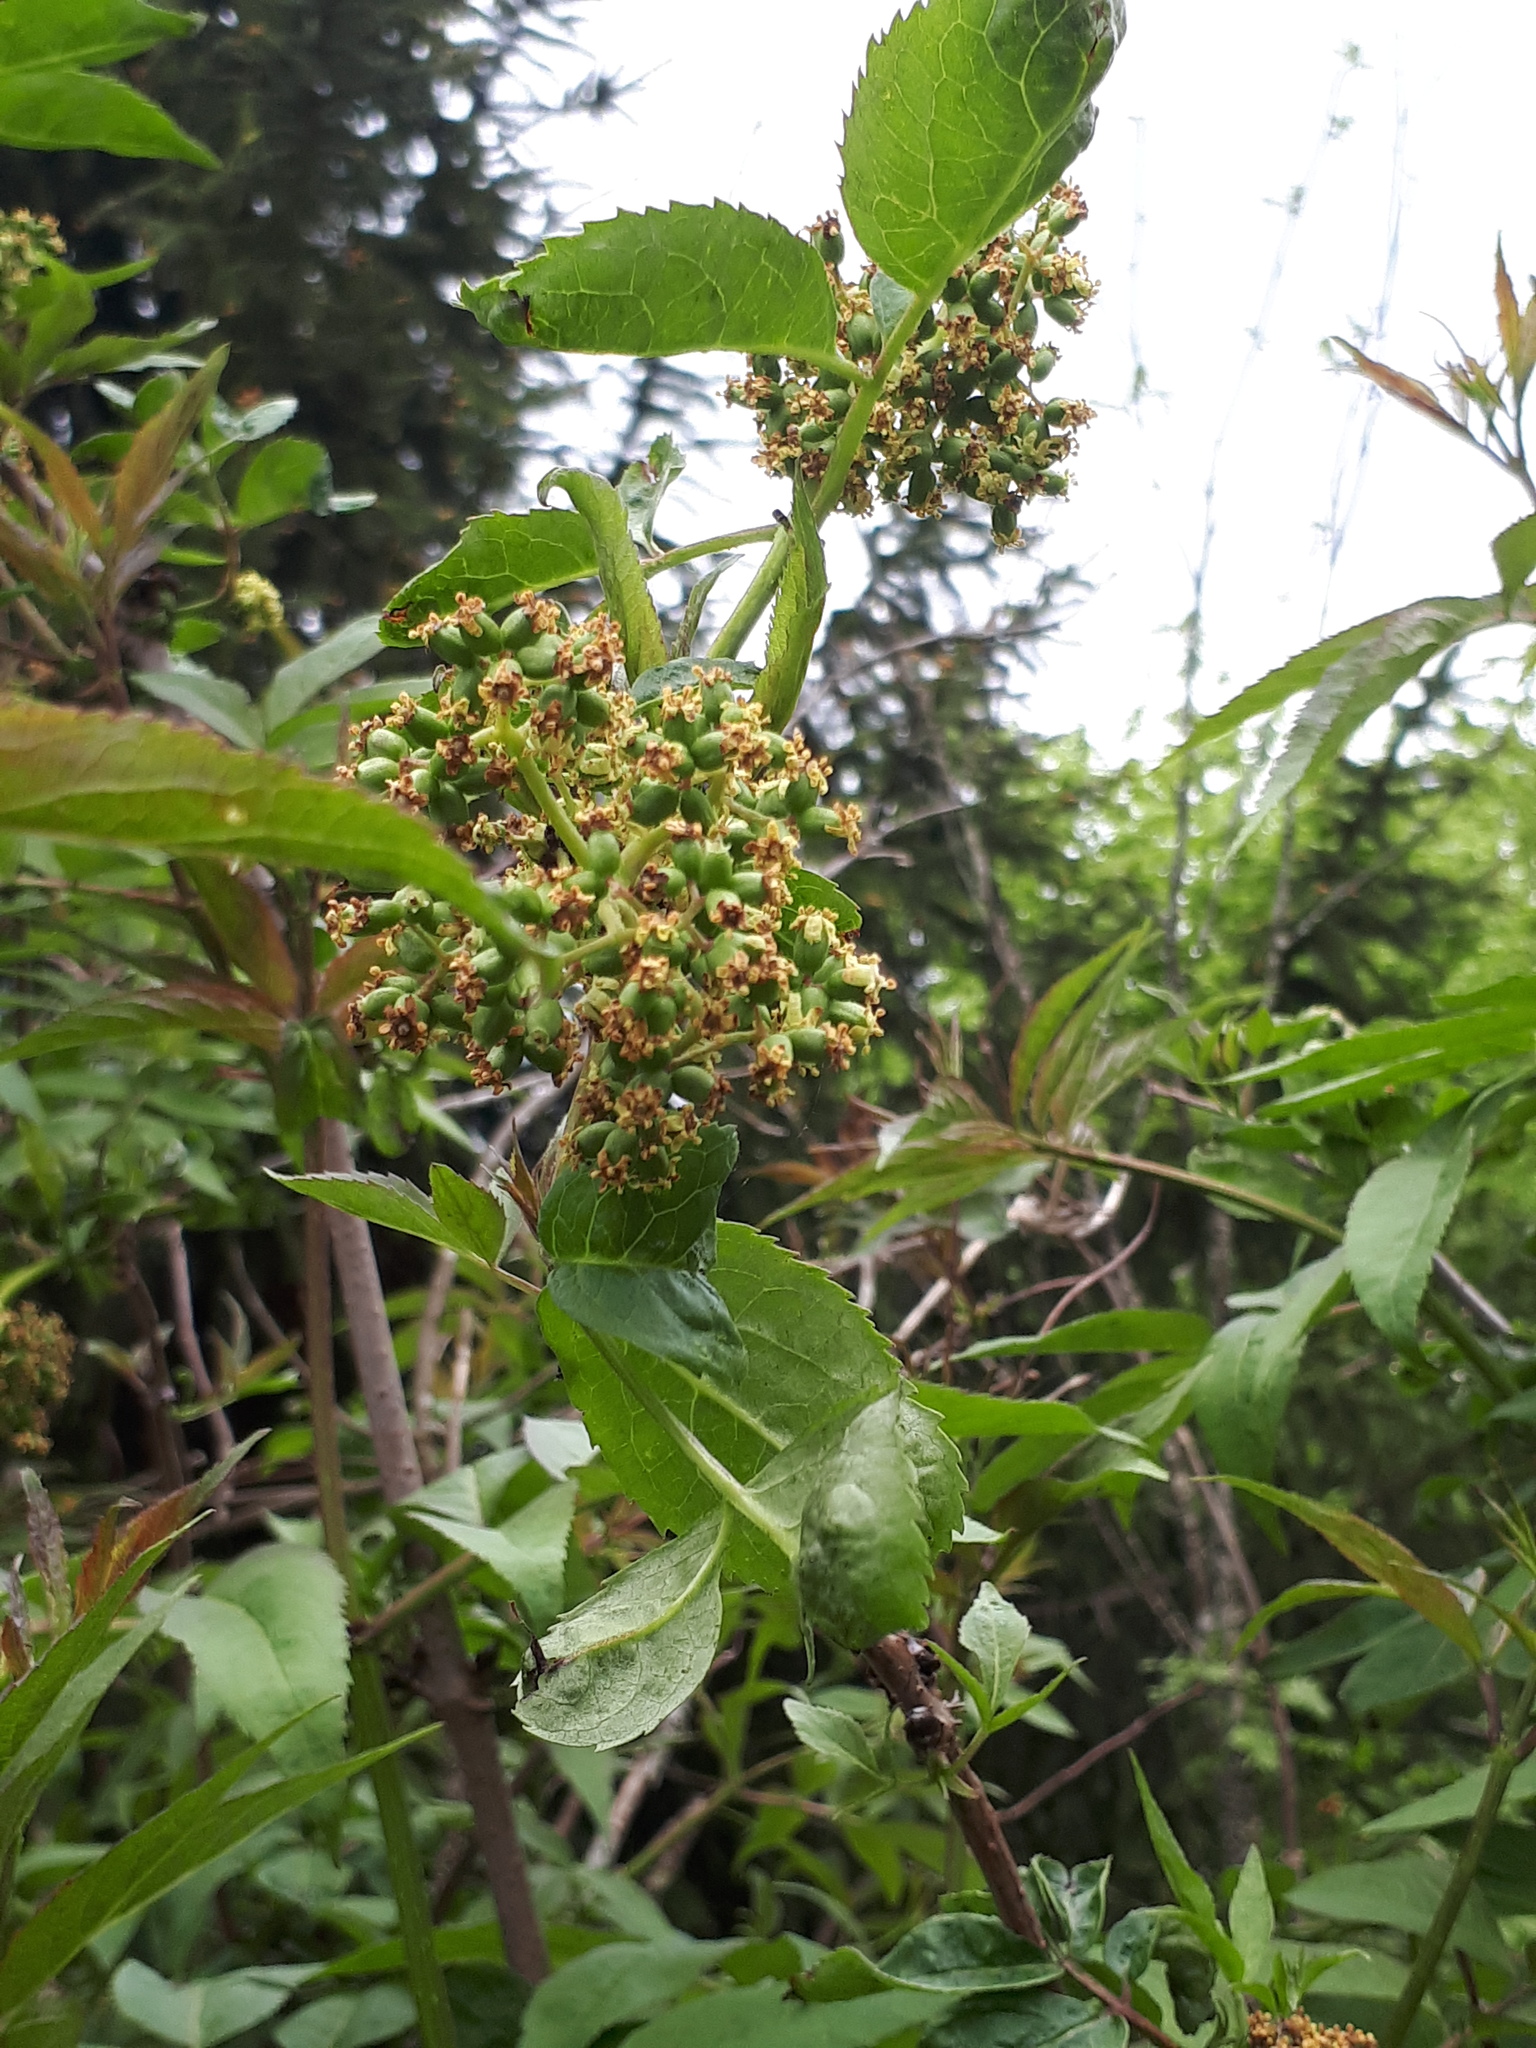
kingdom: Plantae
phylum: Tracheophyta
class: Magnoliopsida
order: Dipsacales
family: Viburnaceae
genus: Sambucus
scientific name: Sambucus racemosa
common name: Red-berried elder
